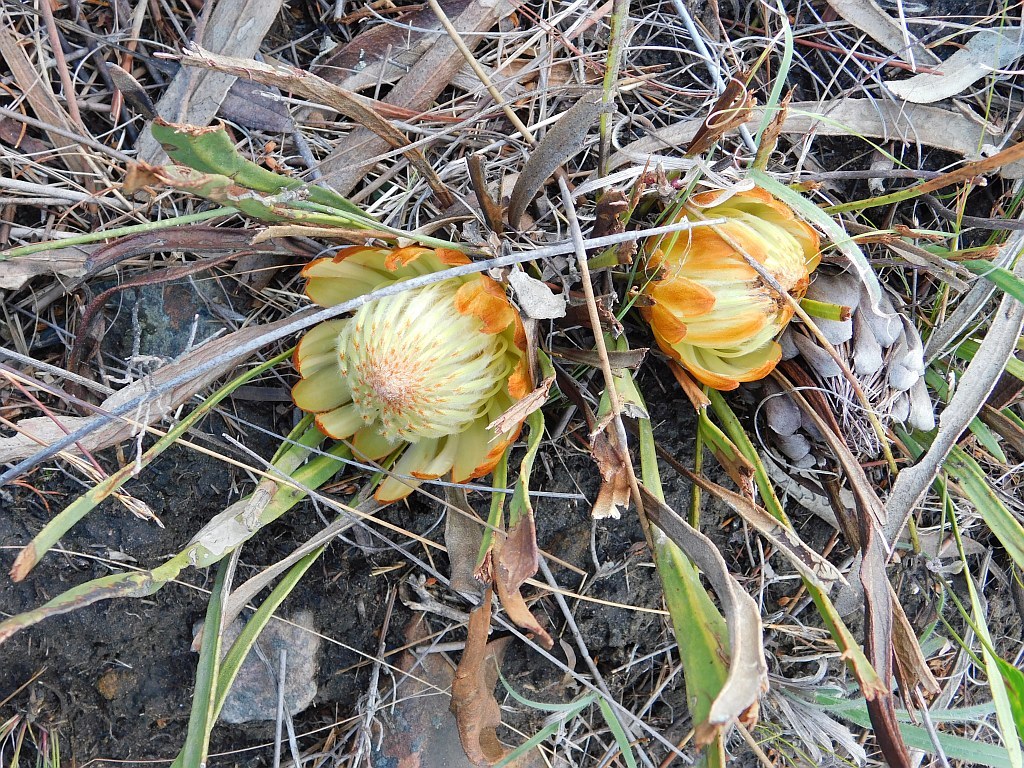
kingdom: Plantae
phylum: Tracheophyta
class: Magnoliopsida
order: Proteales
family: Proteaceae
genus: Protea
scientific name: Protea scabra
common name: Sandpaper-leaf sugarbush
